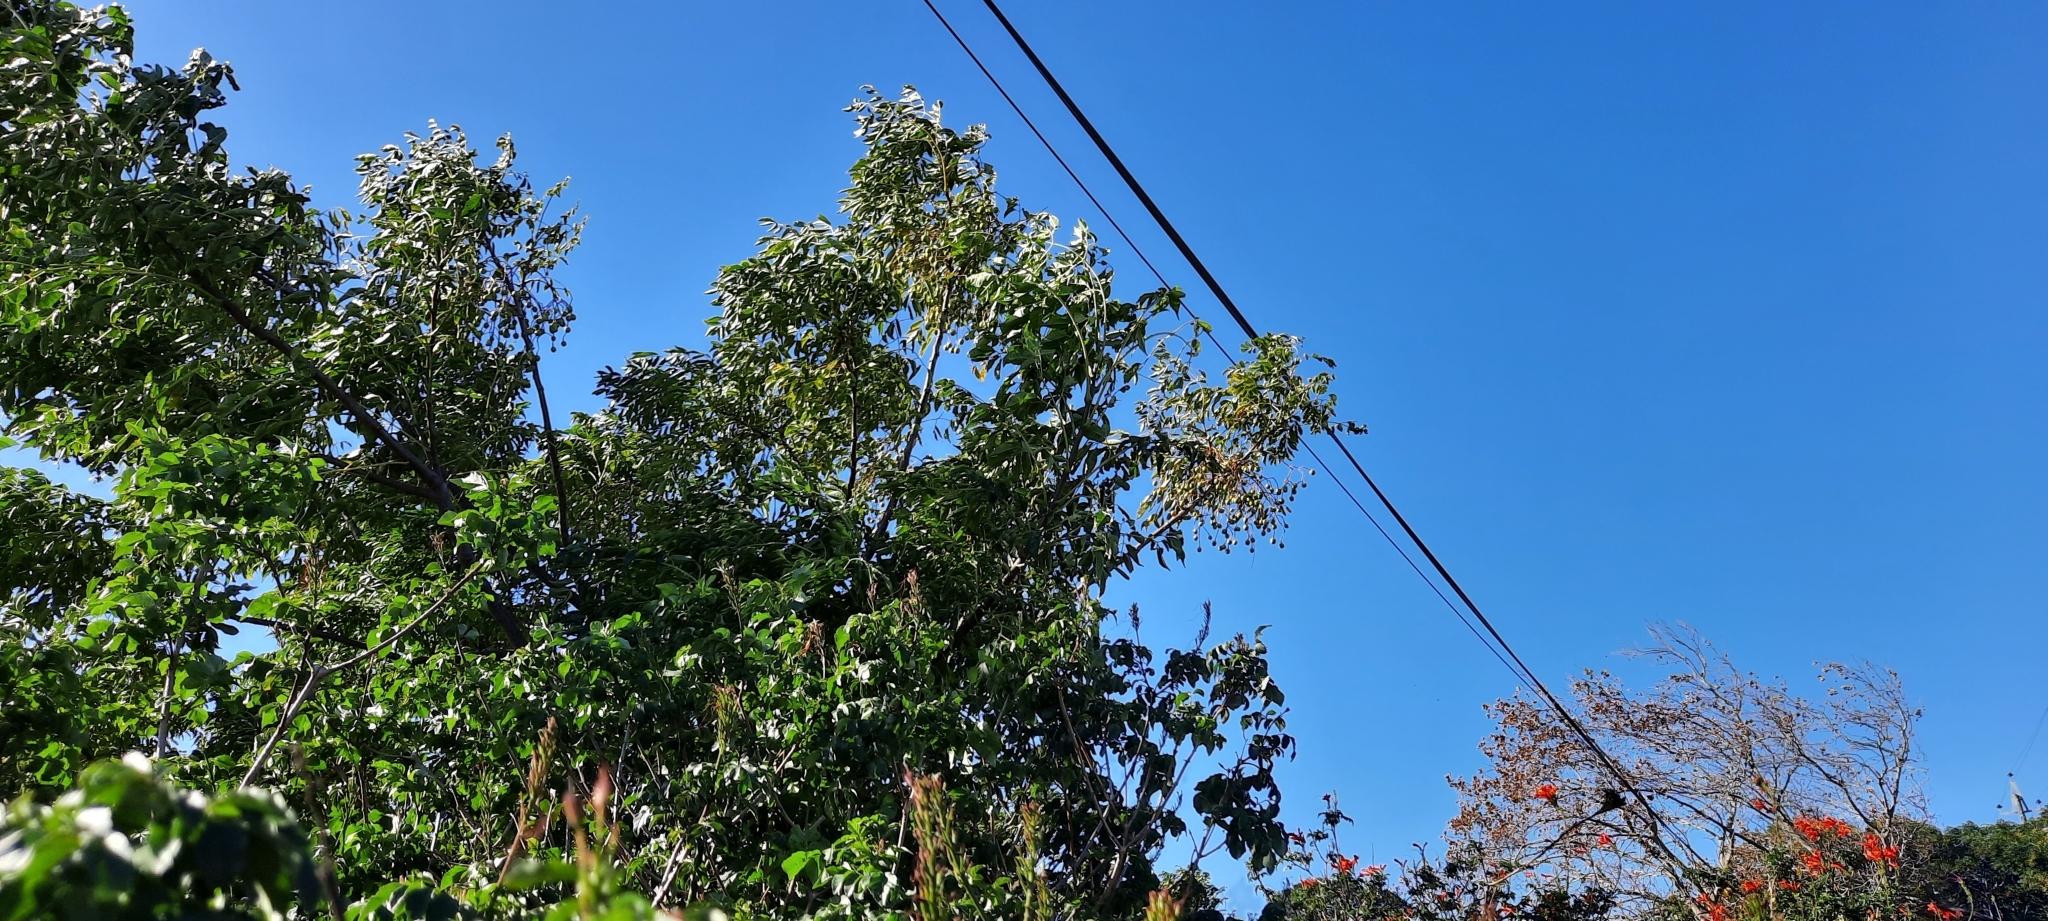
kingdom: Plantae
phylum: Tracheophyta
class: Magnoliopsida
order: Sapindales
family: Meliaceae
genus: Melia
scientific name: Melia azedarach
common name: Chinaberrytree
